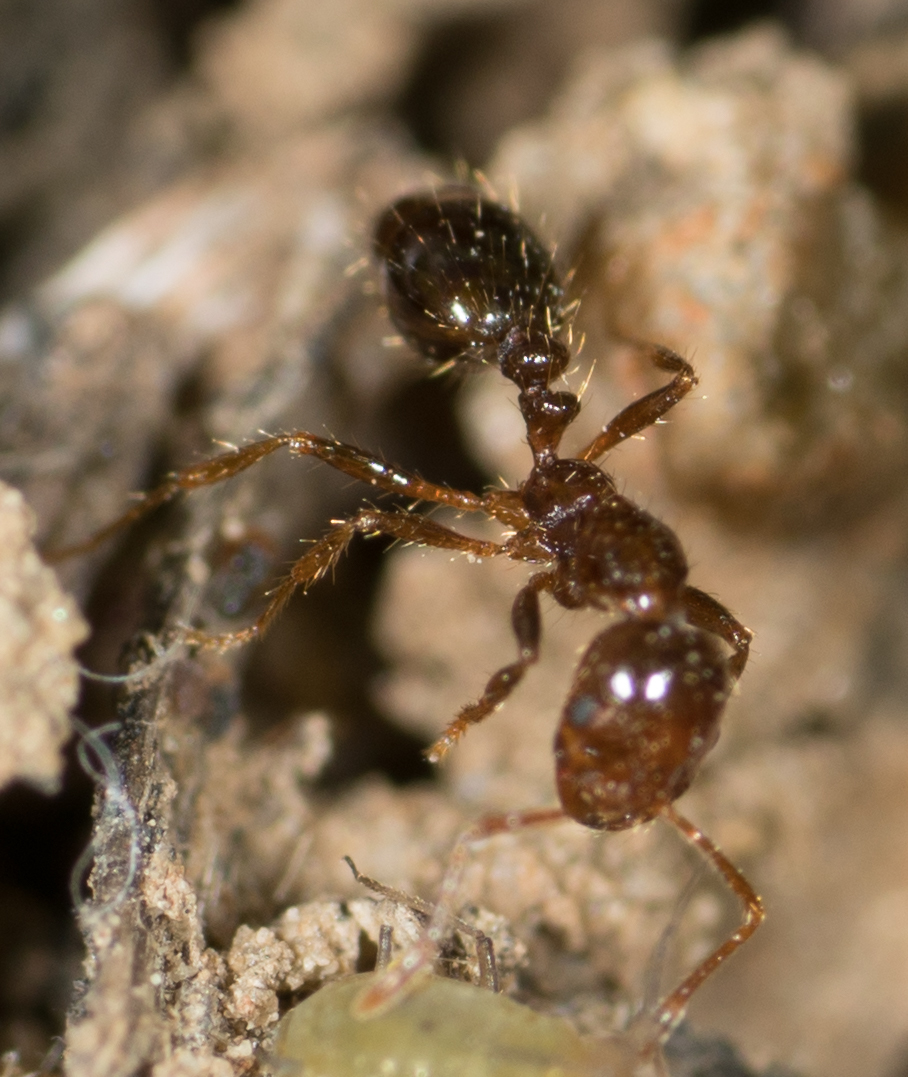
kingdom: Animalia
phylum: Arthropoda
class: Insecta
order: Hymenoptera
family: Formicidae
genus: Solenopsis
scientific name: Solenopsis invicta
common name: Red imported fire ant
